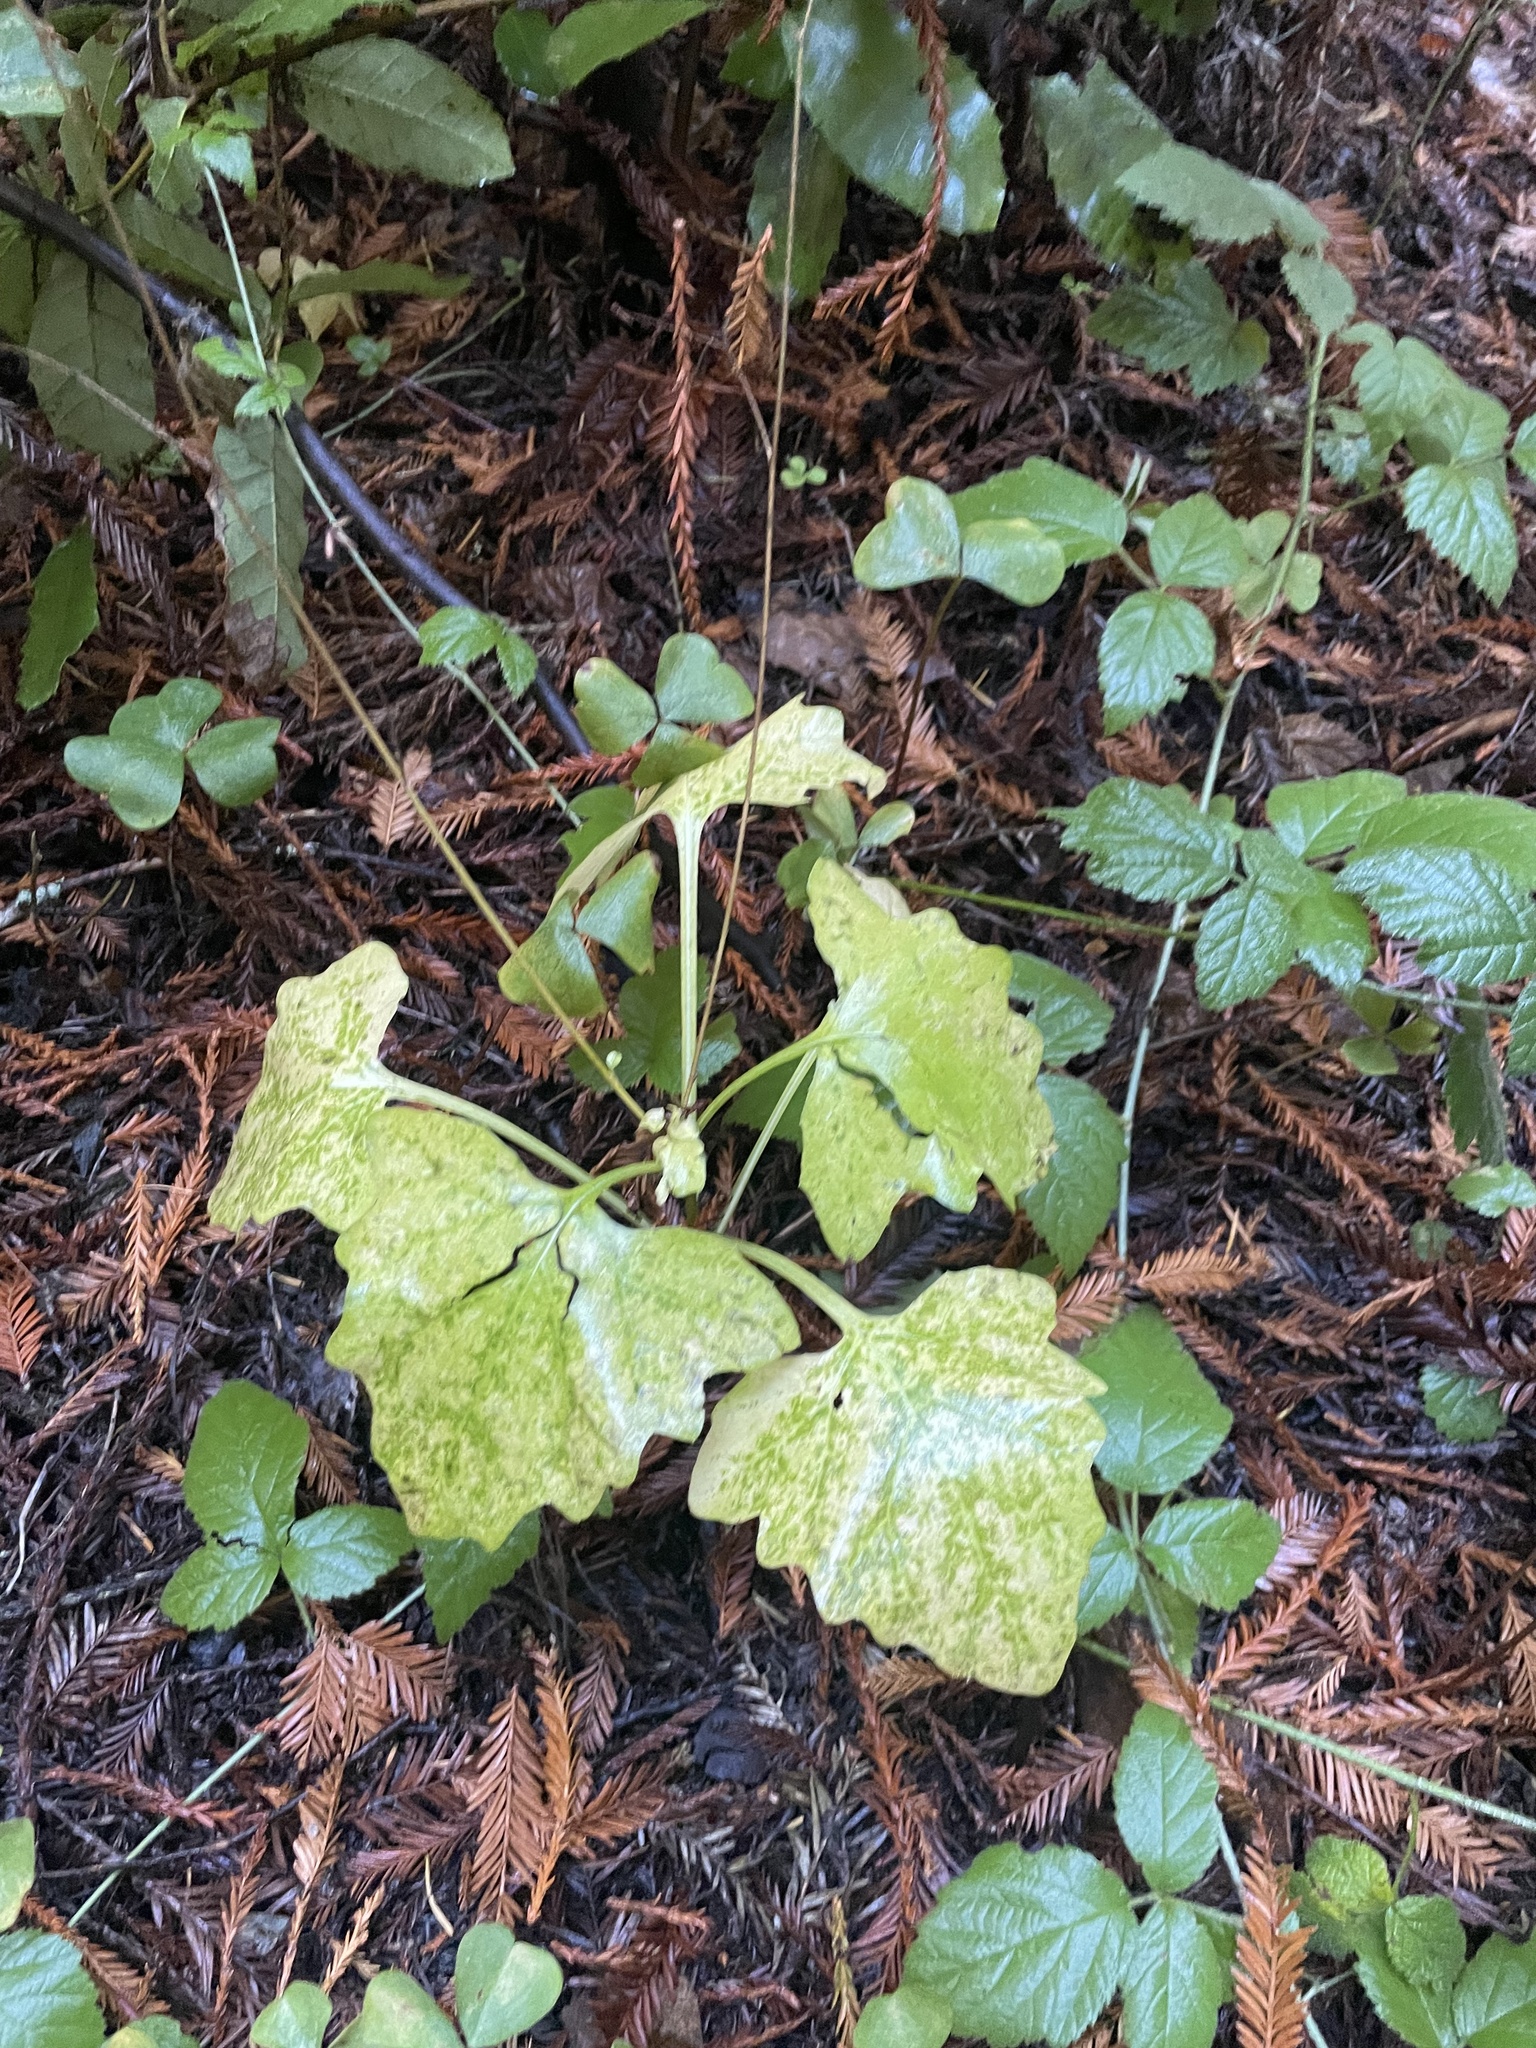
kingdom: Plantae
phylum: Tracheophyta
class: Magnoliopsida
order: Asterales
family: Asteraceae
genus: Adenocaulon
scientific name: Adenocaulon bicolor
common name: Trailplant
